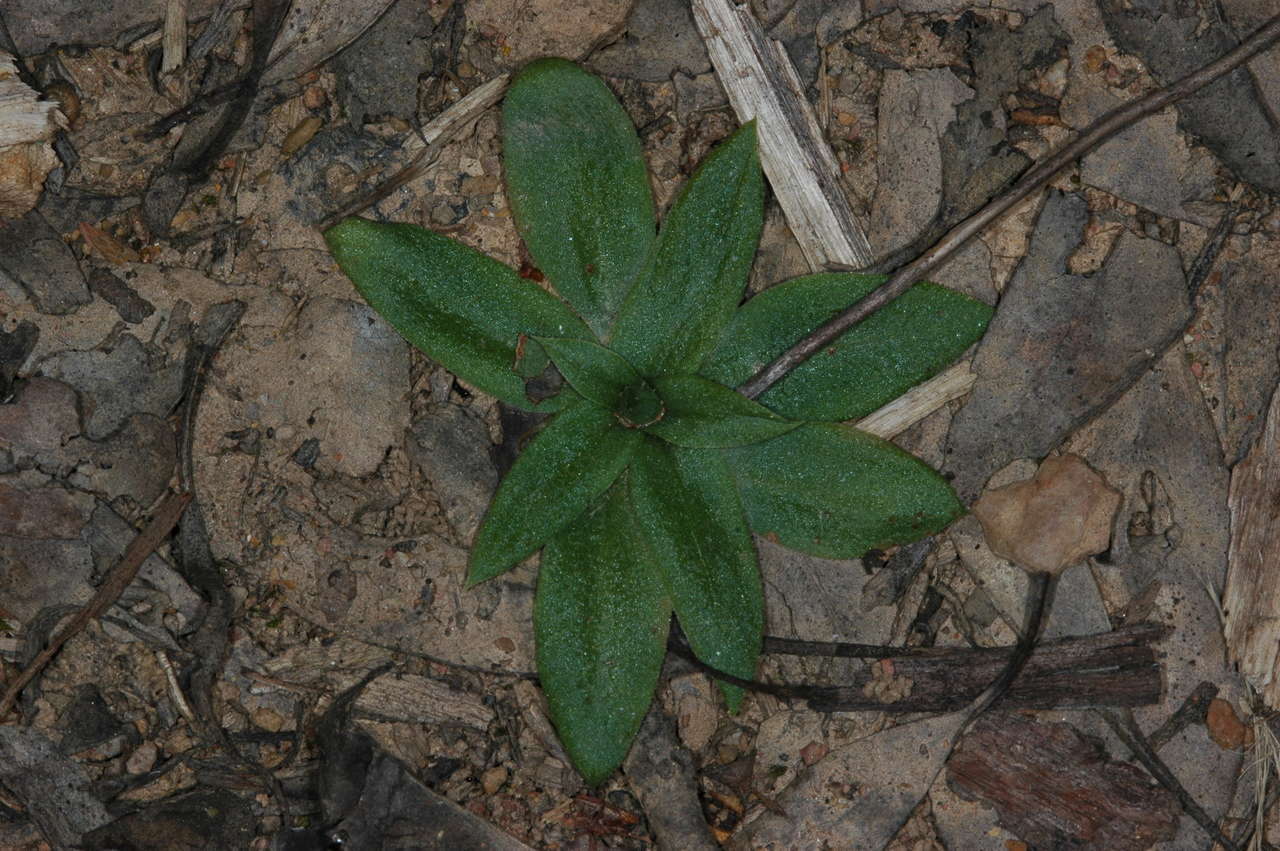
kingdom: Plantae
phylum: Tracheophyta
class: Liliopsida
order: Asparagales
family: Orchidaceae
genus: Pterostylis
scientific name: Pterostylis squamata
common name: Ruddy greenhood
